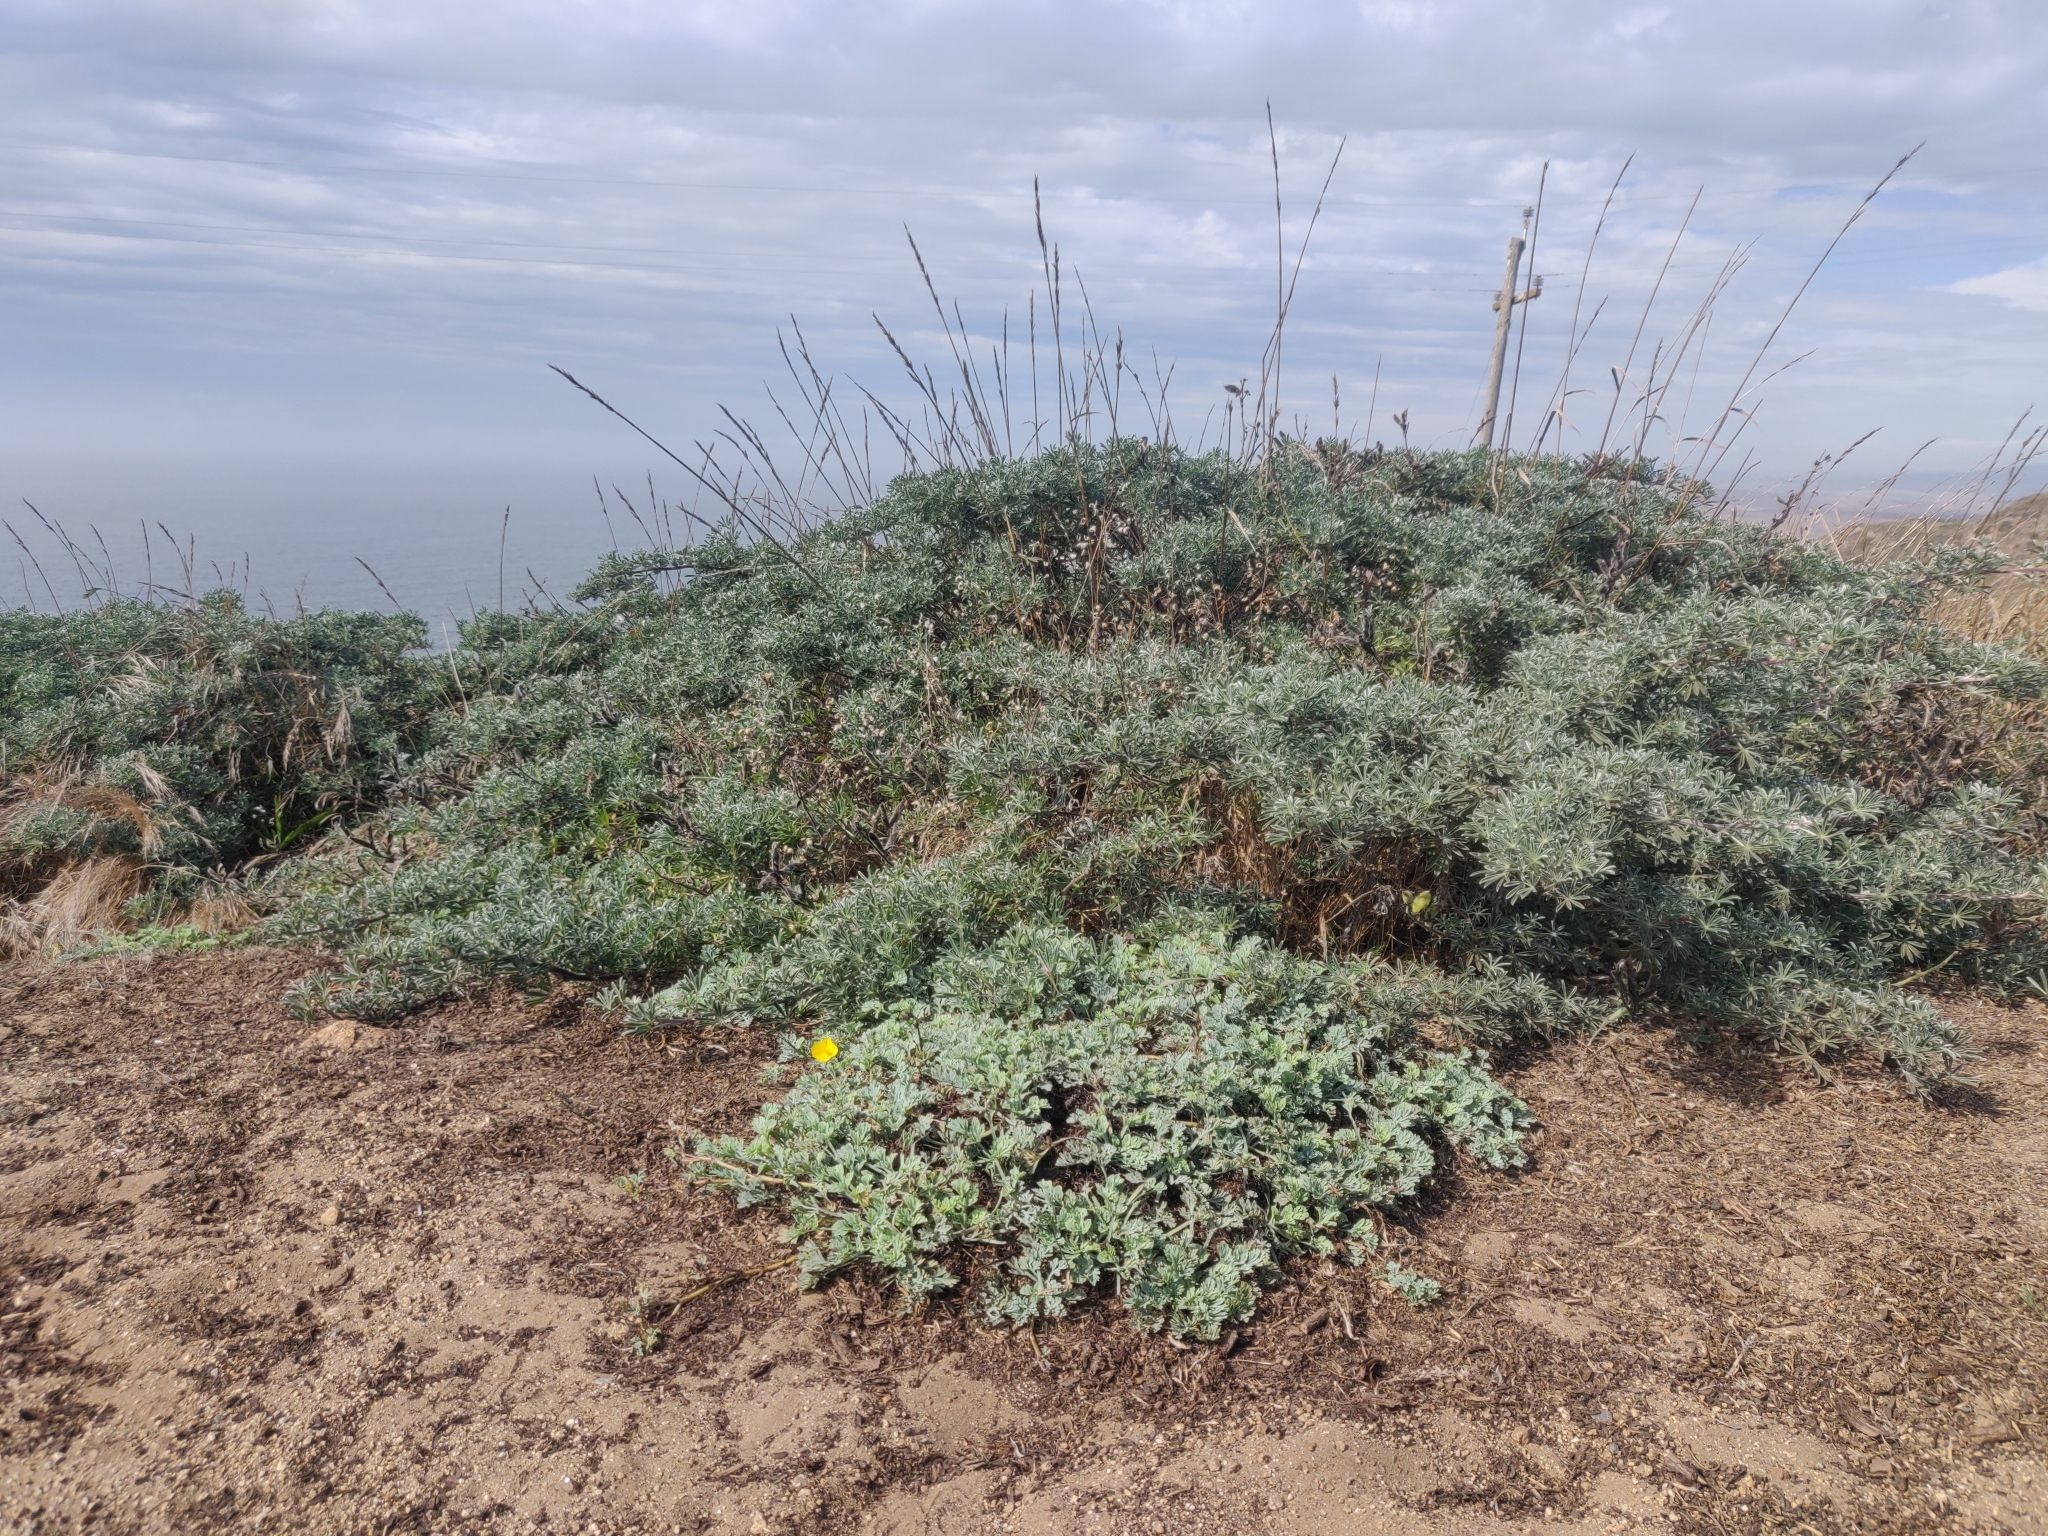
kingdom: Plantae
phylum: Tracheophyta
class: Magnoliopsida
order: Ranunculales
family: Papaveraceae
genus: Eschscholzia
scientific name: Eschscholzia californica
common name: California poppy
